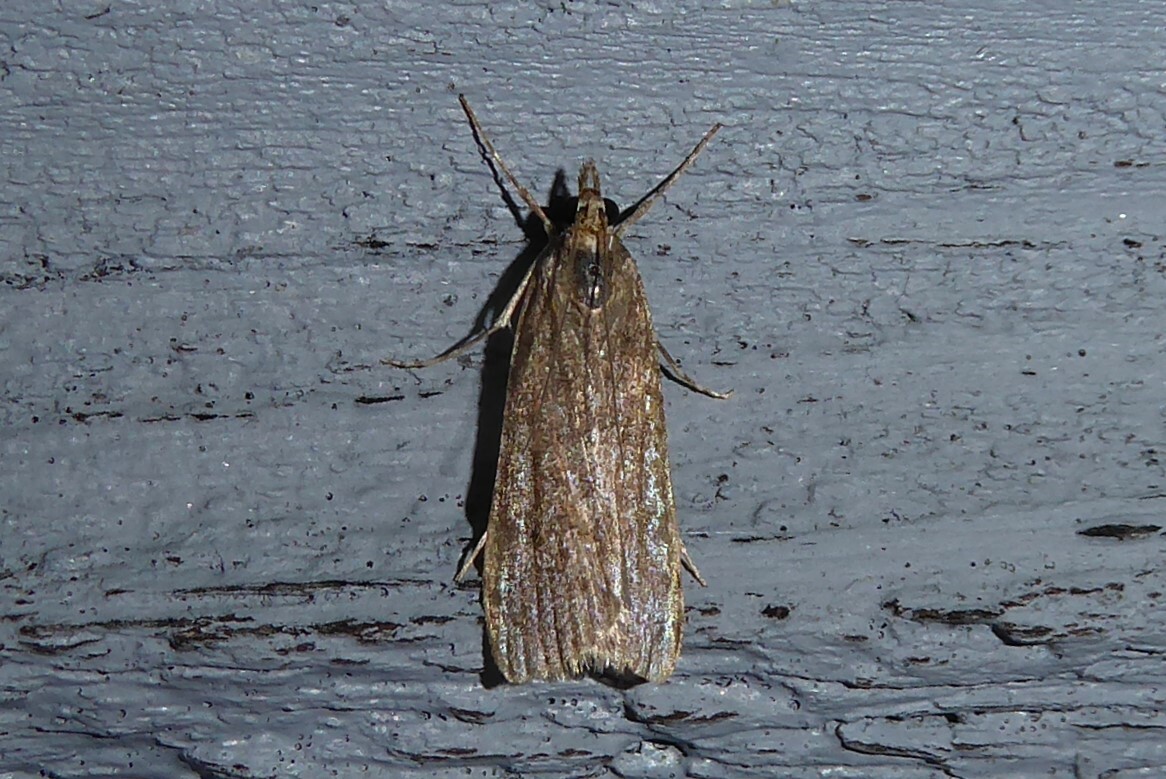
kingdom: Animalia
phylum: Arthropoda
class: Insecta
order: Lepidoptera
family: Crambidae
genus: Eudonia
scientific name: Eudonia submarginalis
